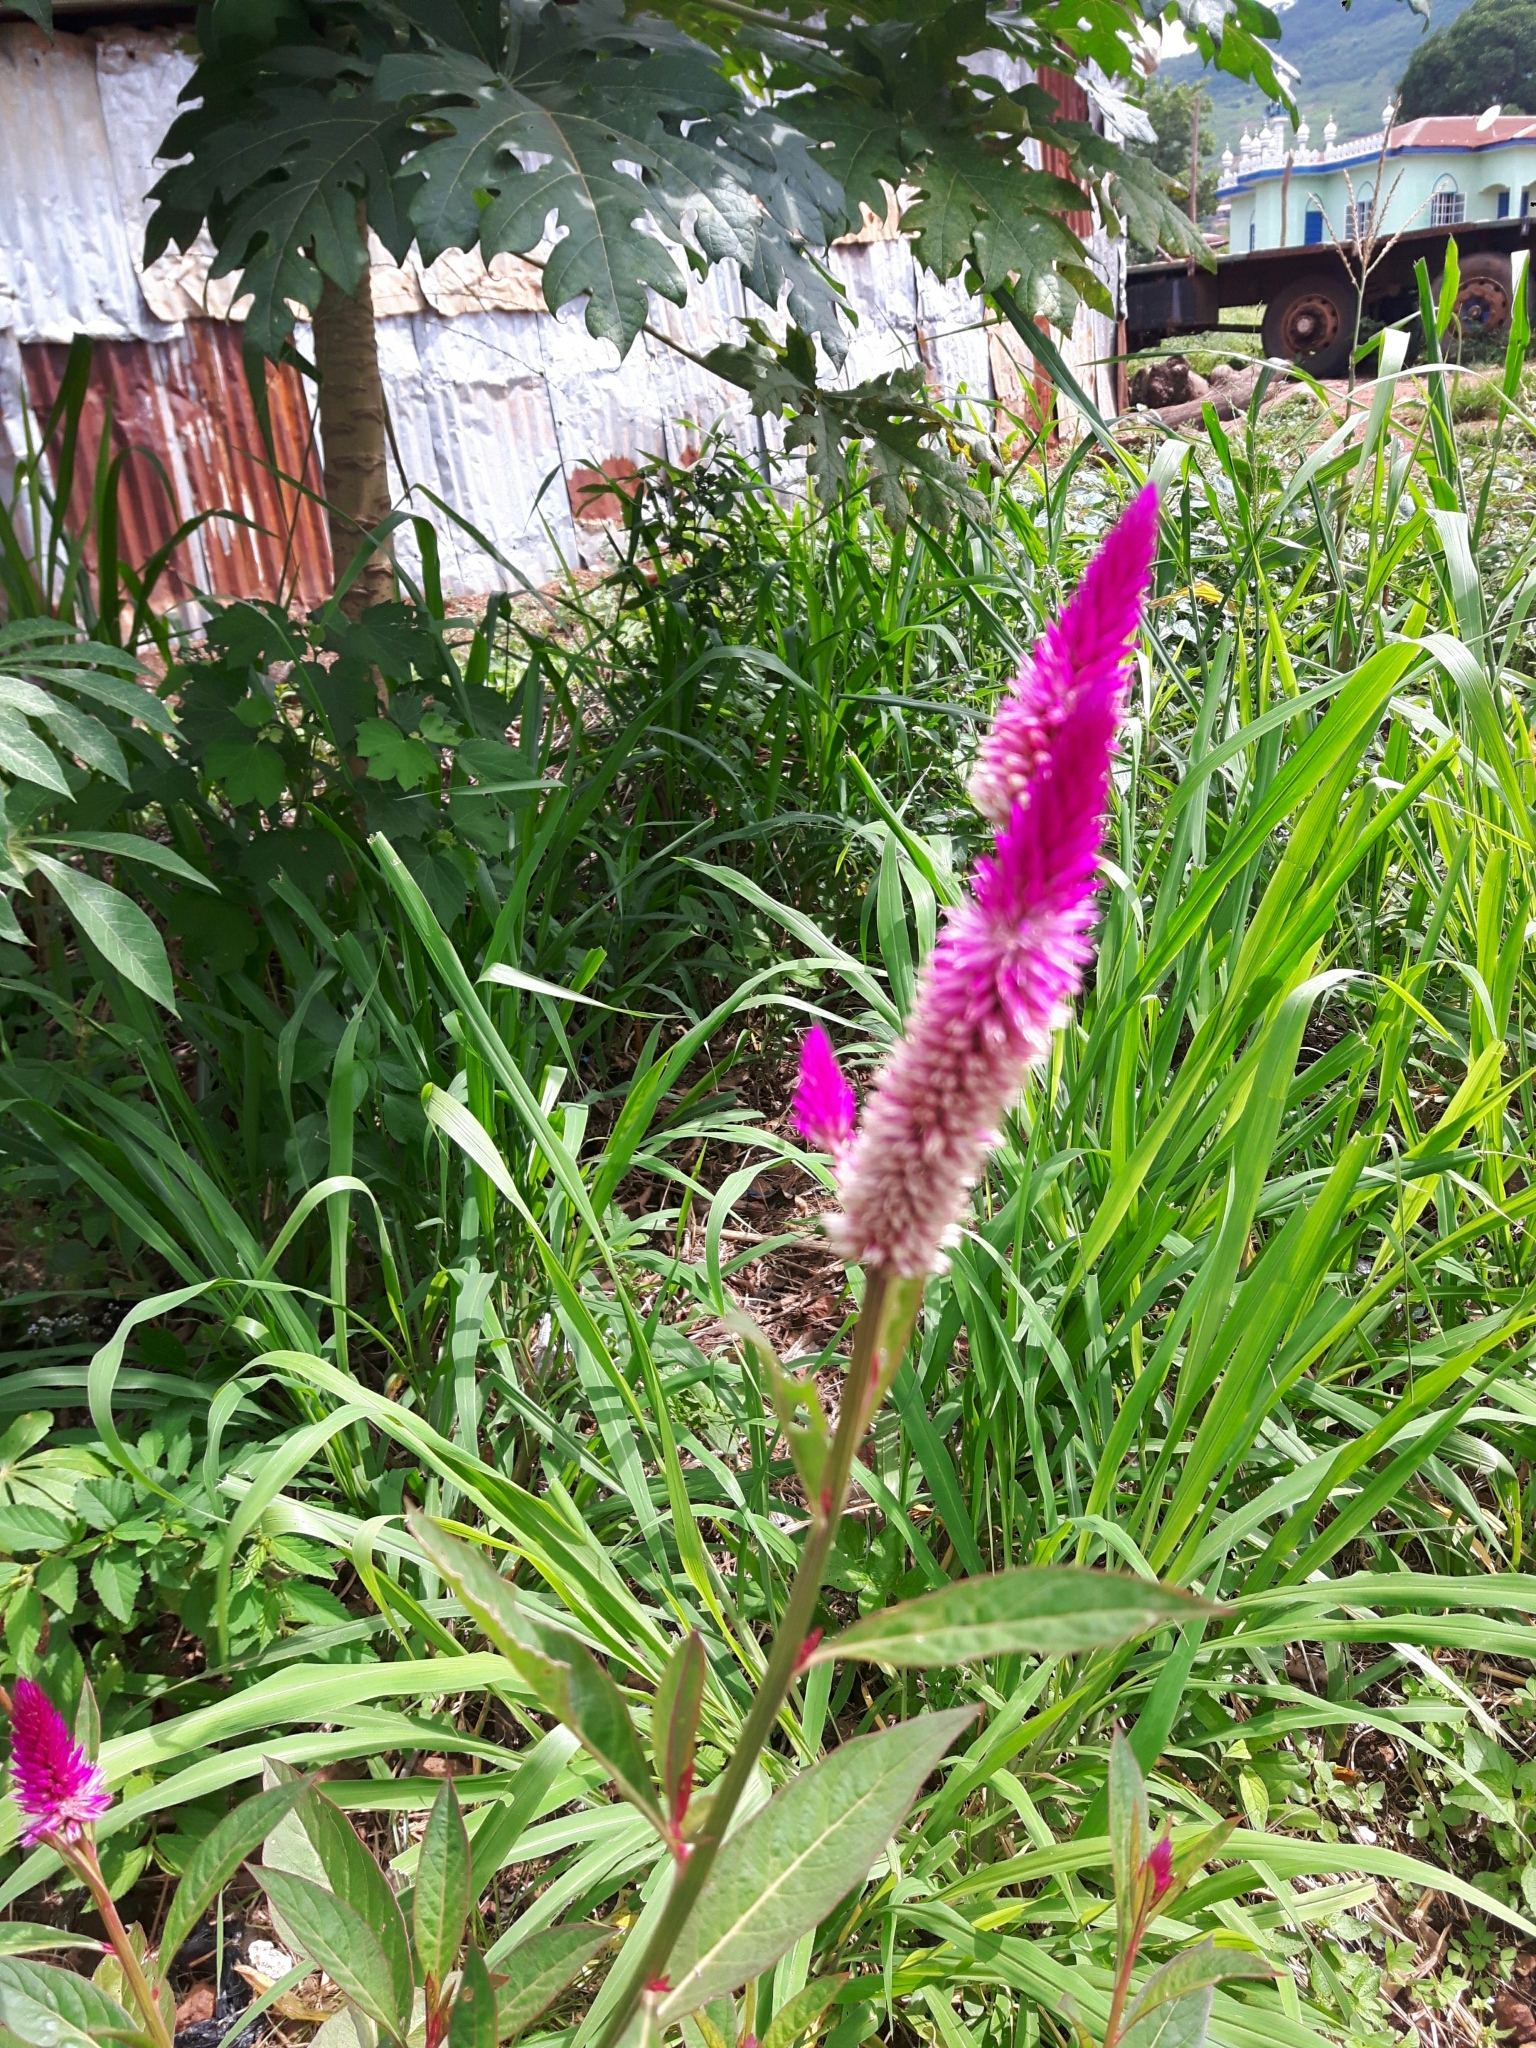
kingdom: Plantae
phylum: Tracheophyta
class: Magnoliopsida
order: Caryophyllales
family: Amaranthaceae
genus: Celosia
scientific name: Celosia argentea
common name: Feather cockscomb
